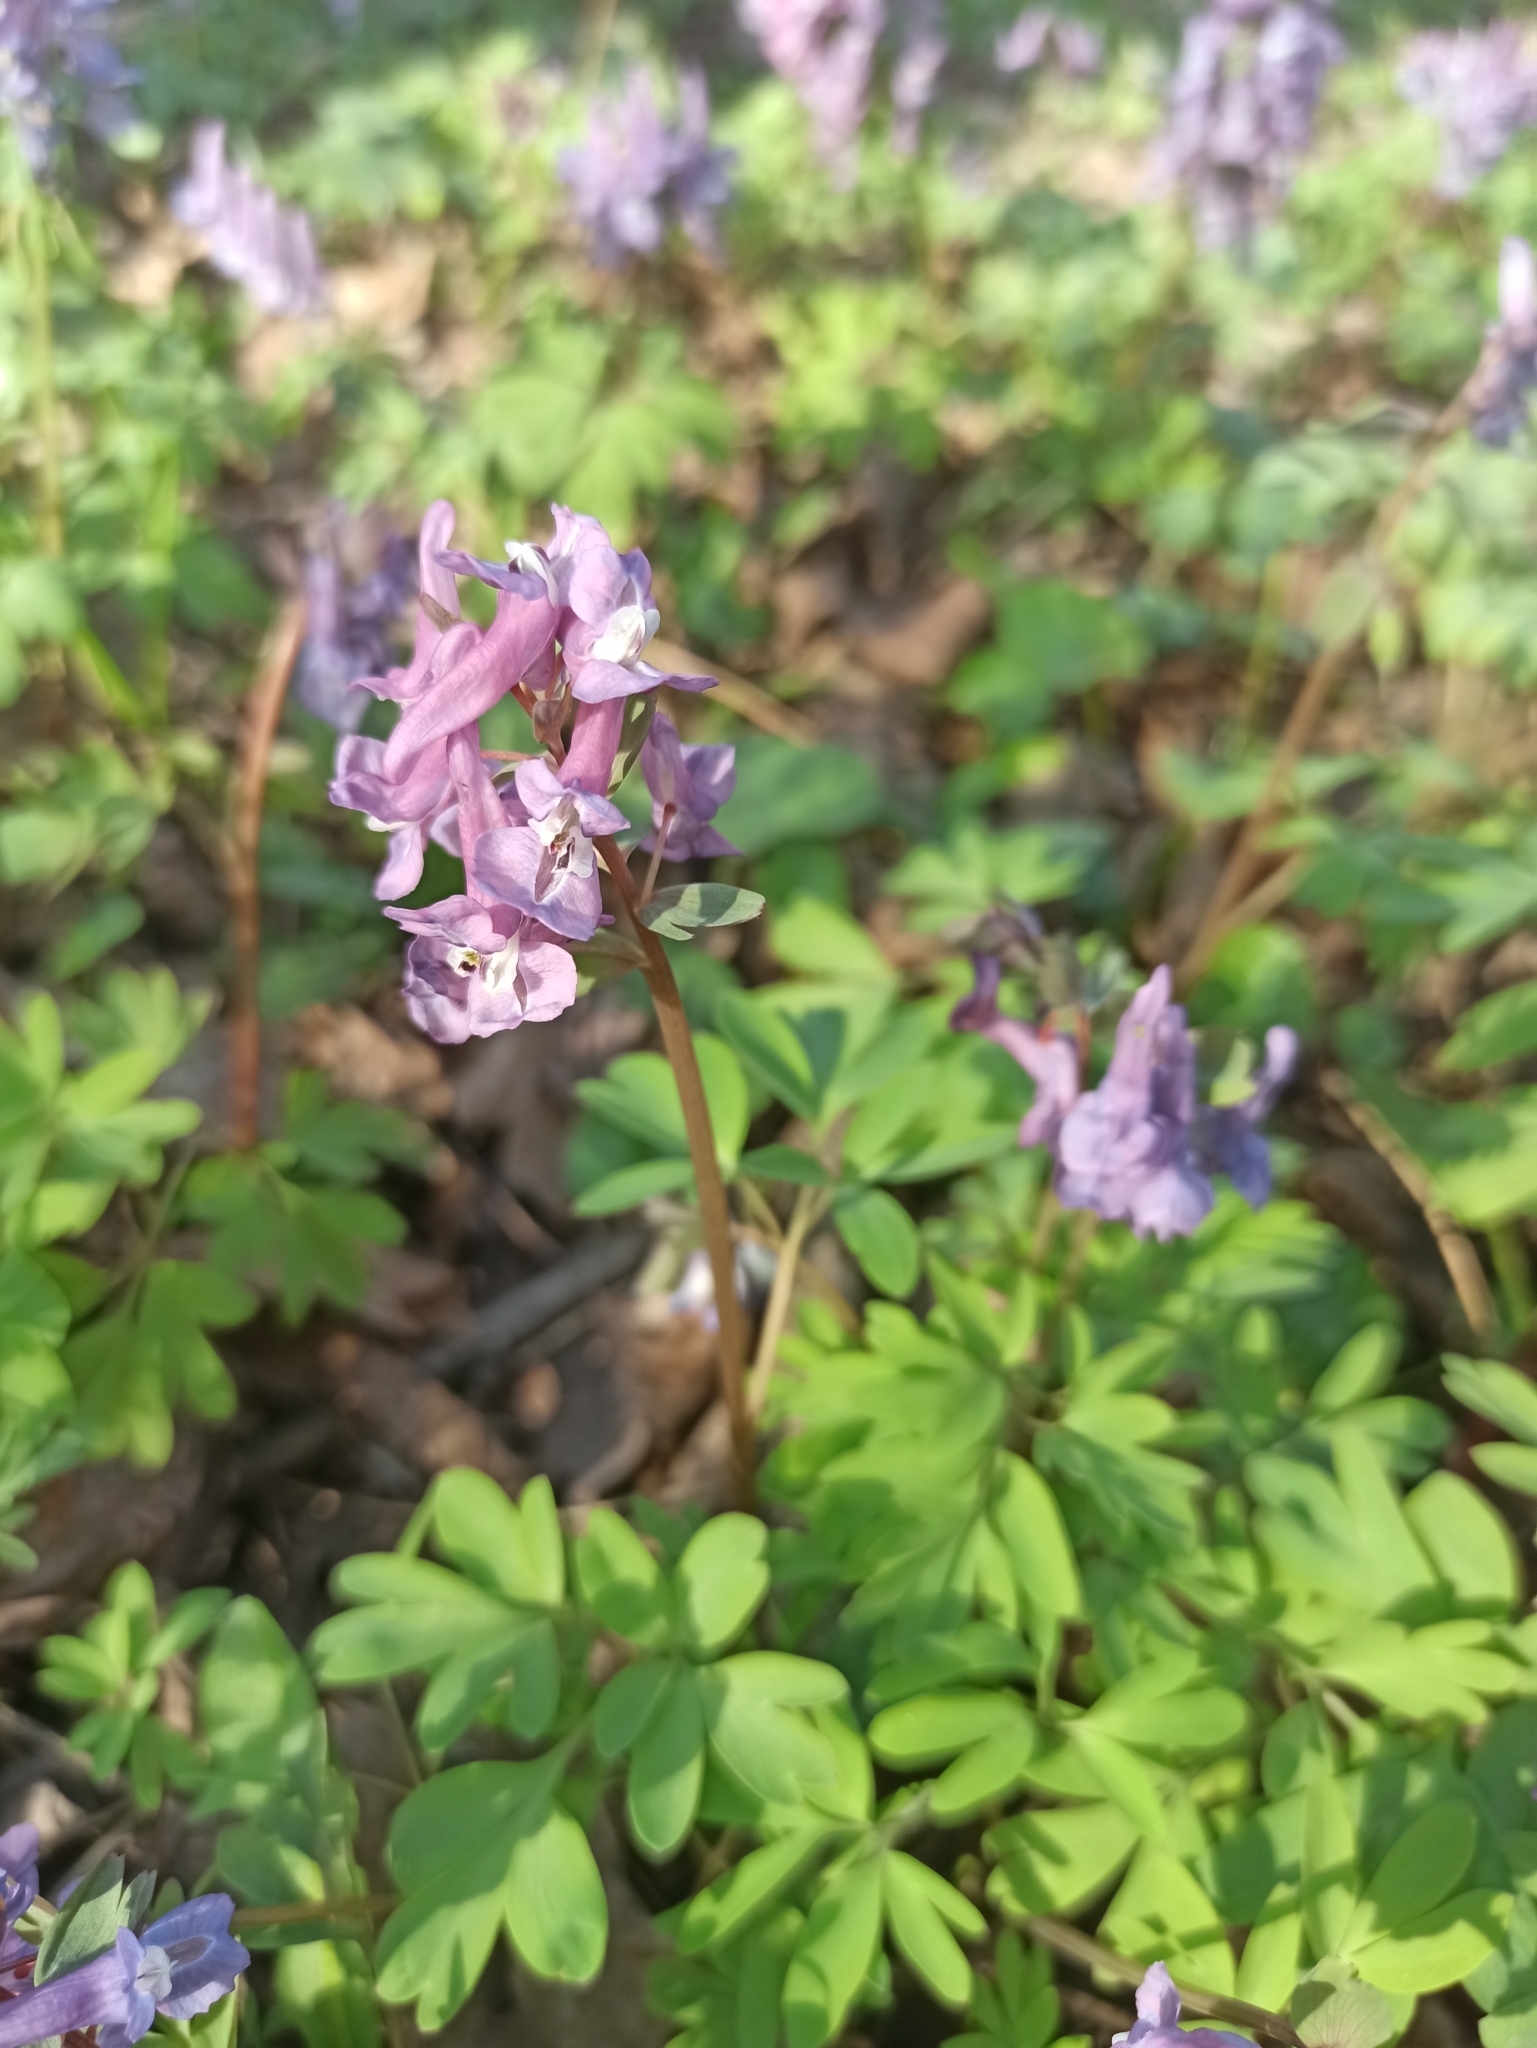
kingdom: Plantae
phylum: Tracheophyta
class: Magnoliopsida
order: Ranunculales
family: Papaveraceae
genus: Corydalis
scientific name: Corydalis solida
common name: Bird-in-a-bush
